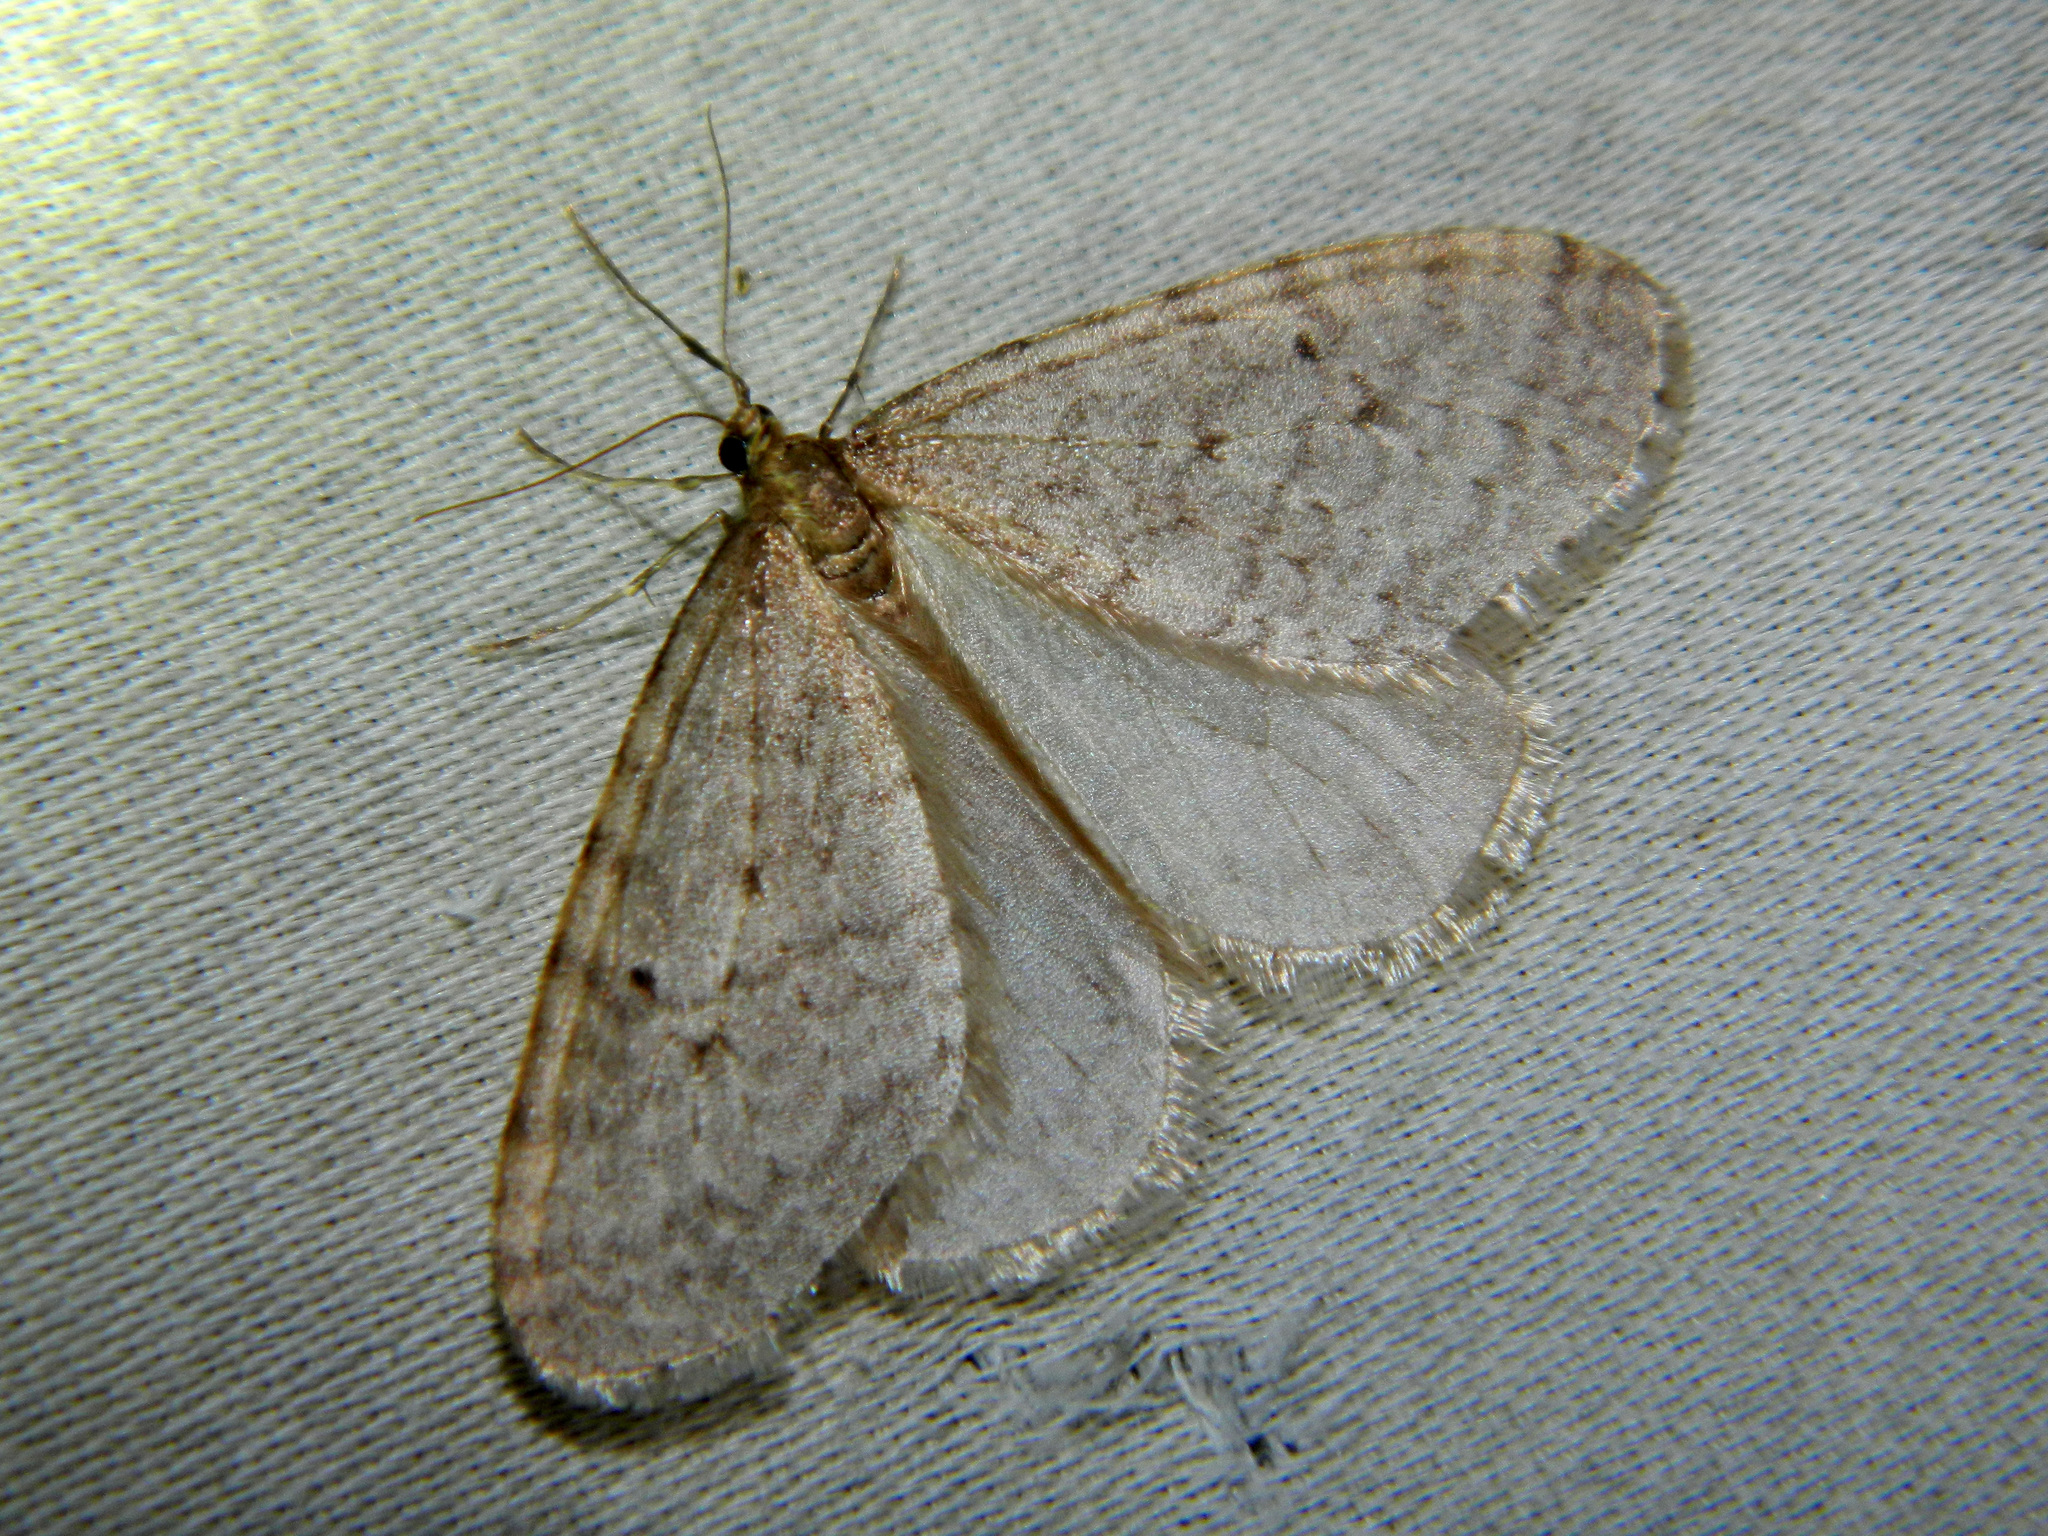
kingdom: Animalia
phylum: Arthropoda
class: Insecta
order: Lepidoptera
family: Geometridae
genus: Operophtera
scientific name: Operophtera bruceata
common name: Bruce spanworm
